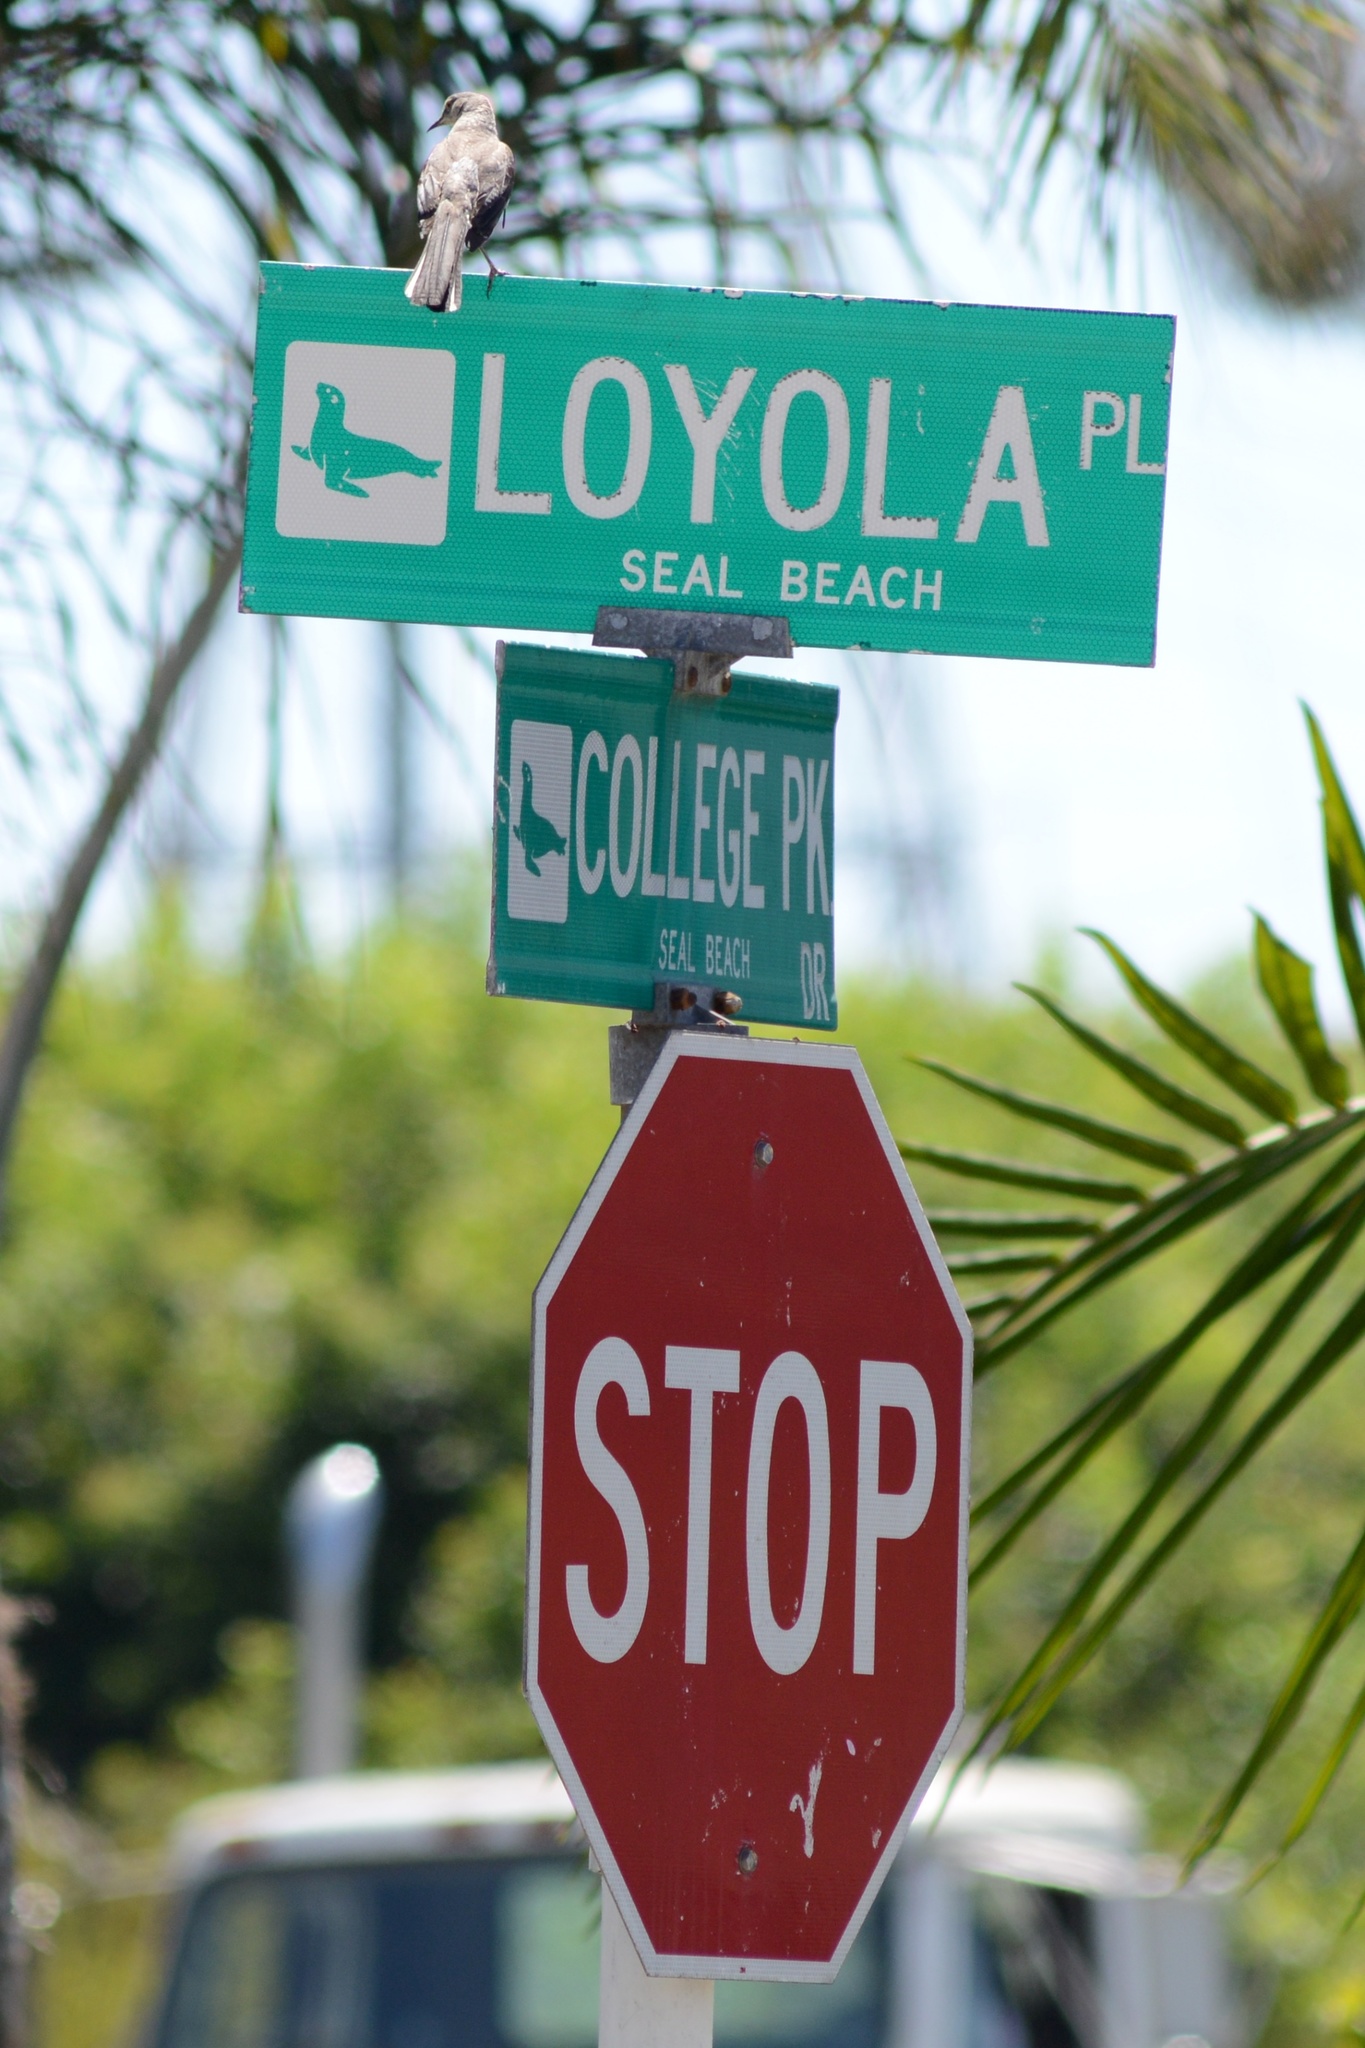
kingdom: Animalia
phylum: Chordata
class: Aves
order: Passeriformes
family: Mimidae
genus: Mimus
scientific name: Mimus polyglottos
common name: Northern mockingbird
